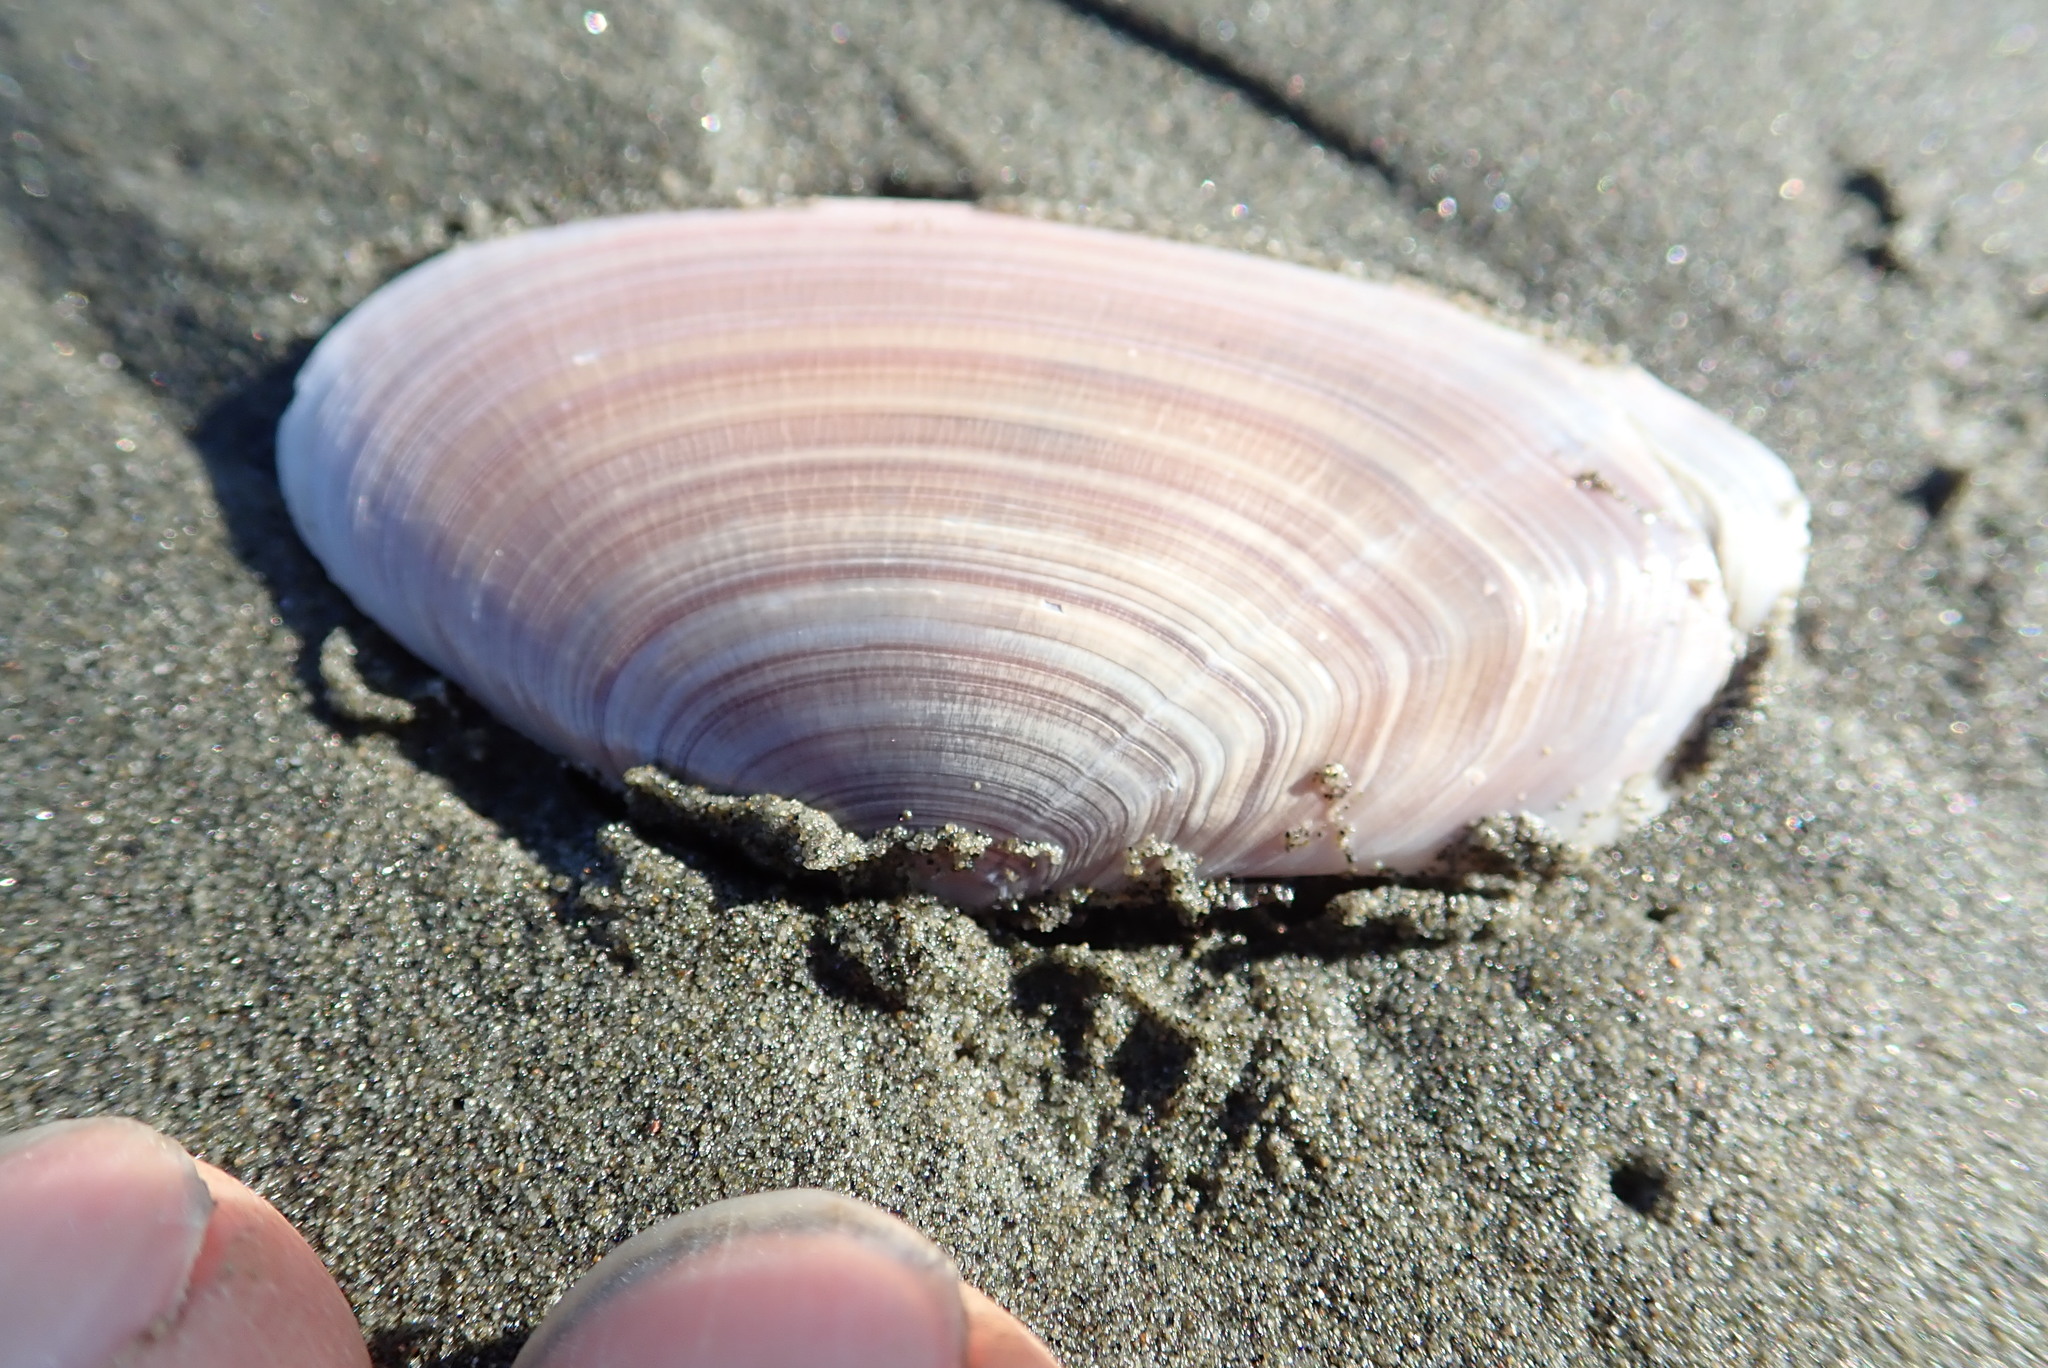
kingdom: Animalia
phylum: Mollusca
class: Bivalvia
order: Cardiida
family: Psammobiidae
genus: Gari
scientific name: Gari lineolata
